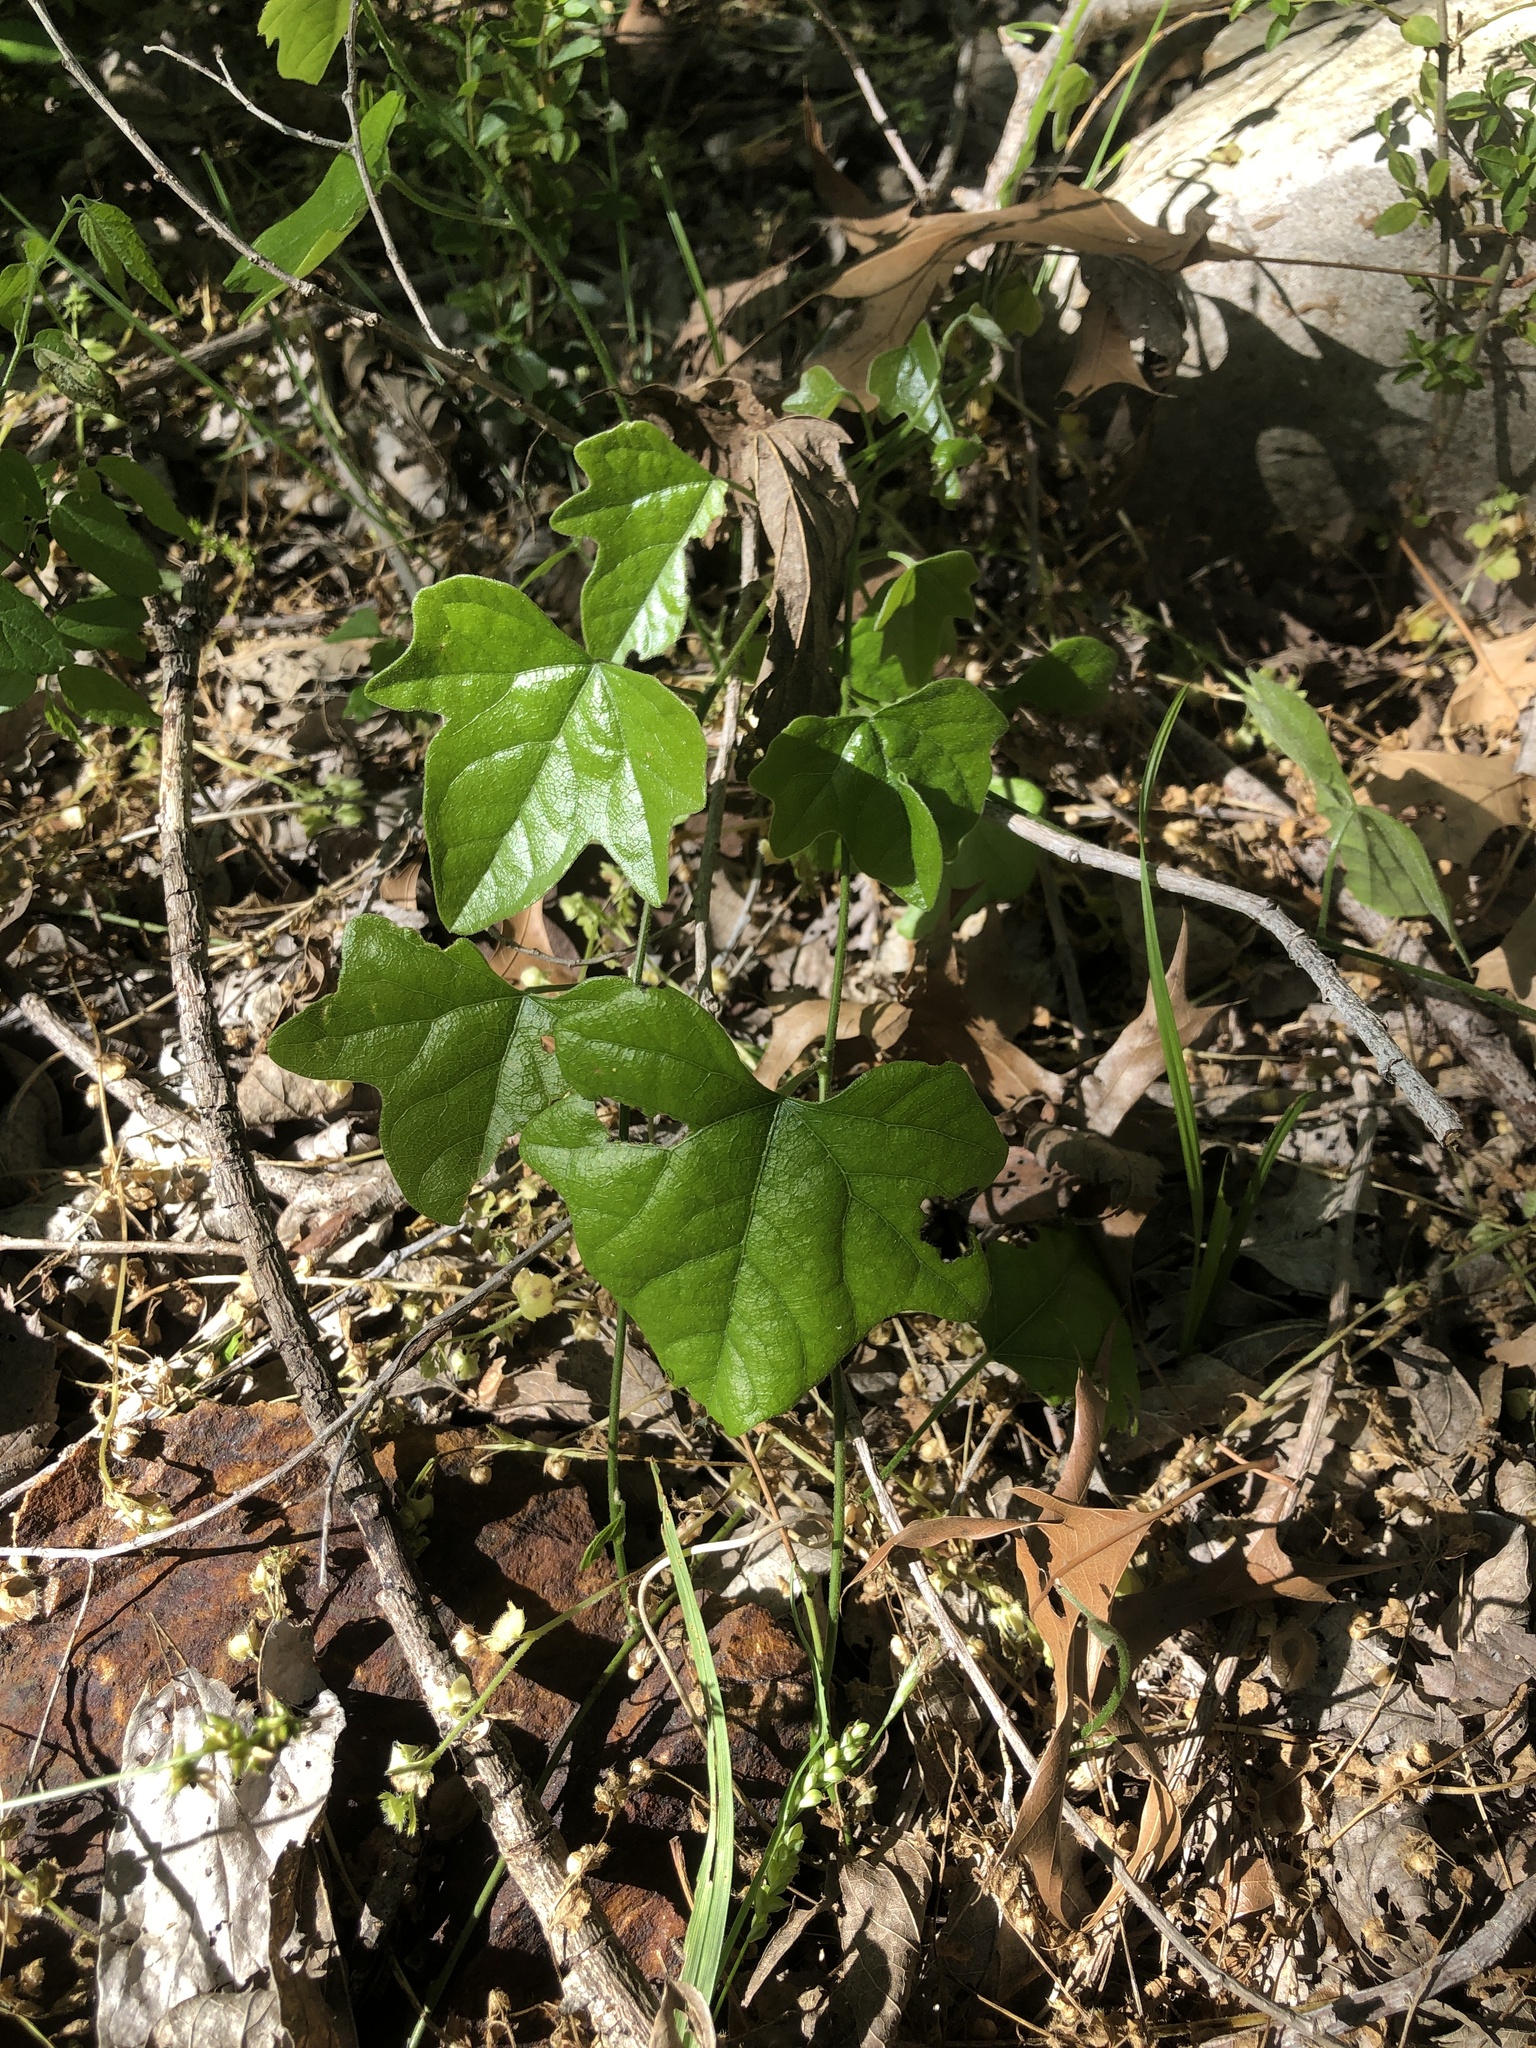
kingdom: Plantae
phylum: Tracheophyta
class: Magnoliopsida
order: Ranunculales
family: Menispermaceae
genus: Cocculus
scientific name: Cocculus carolinus
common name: Carolina moonseed
